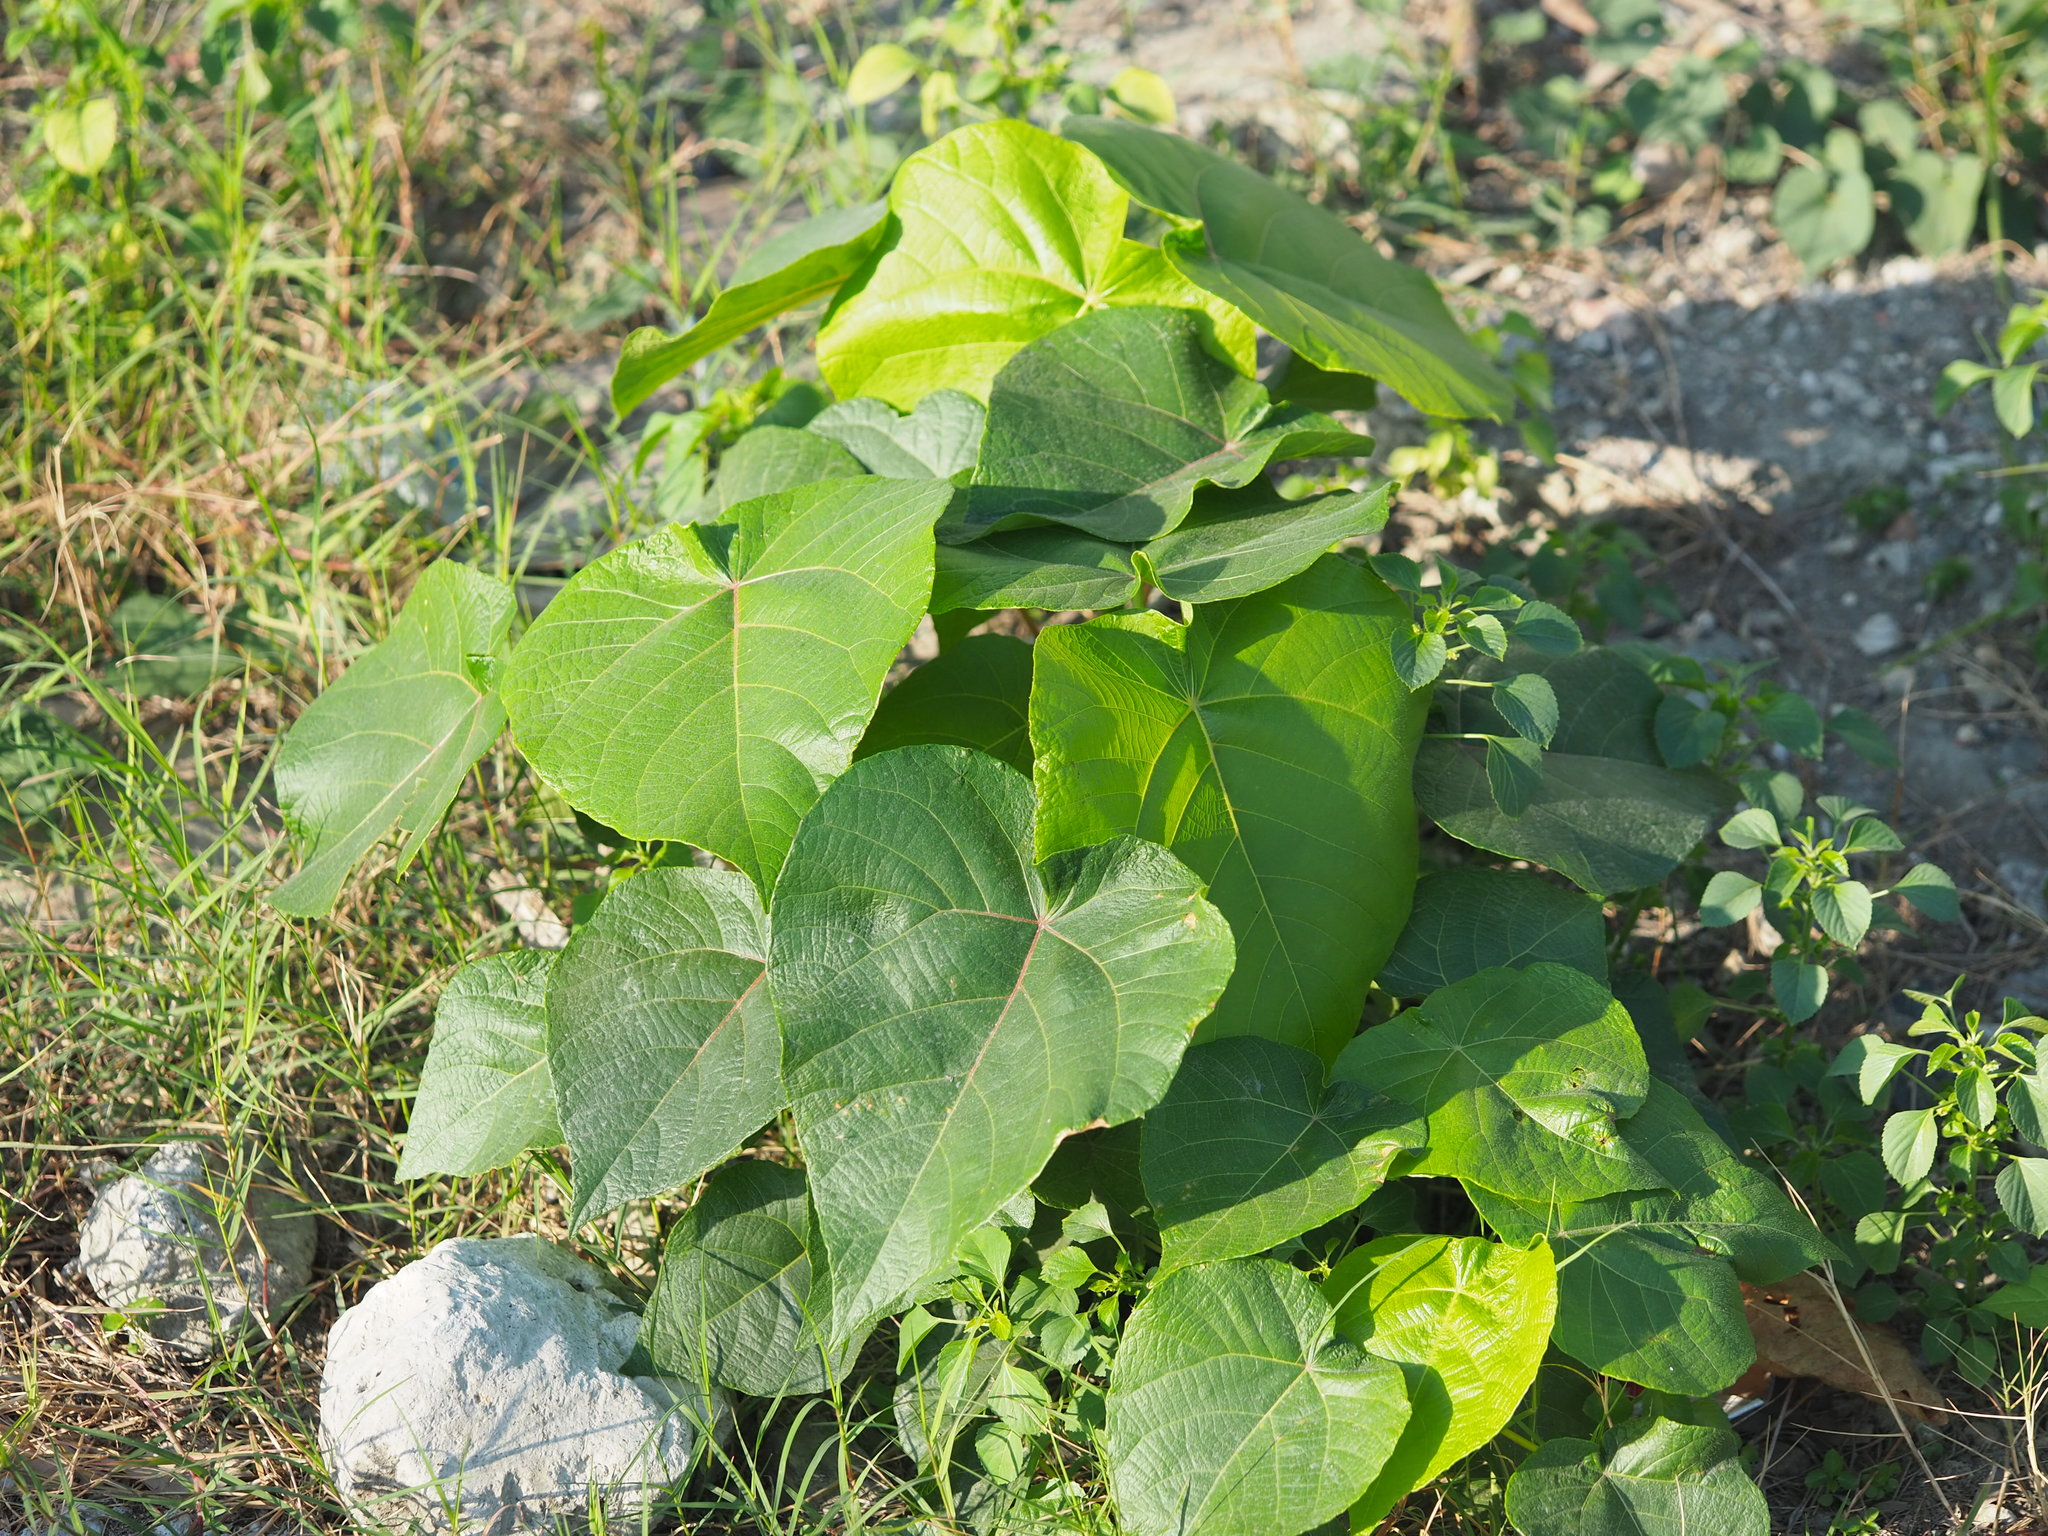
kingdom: Plantae
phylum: Tracheophyta
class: Magnoliopsida
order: Malpighiales
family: Euphorbiaceae
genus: Macaranga
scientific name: Macaranga tanarius
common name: Parasol leaf tree
